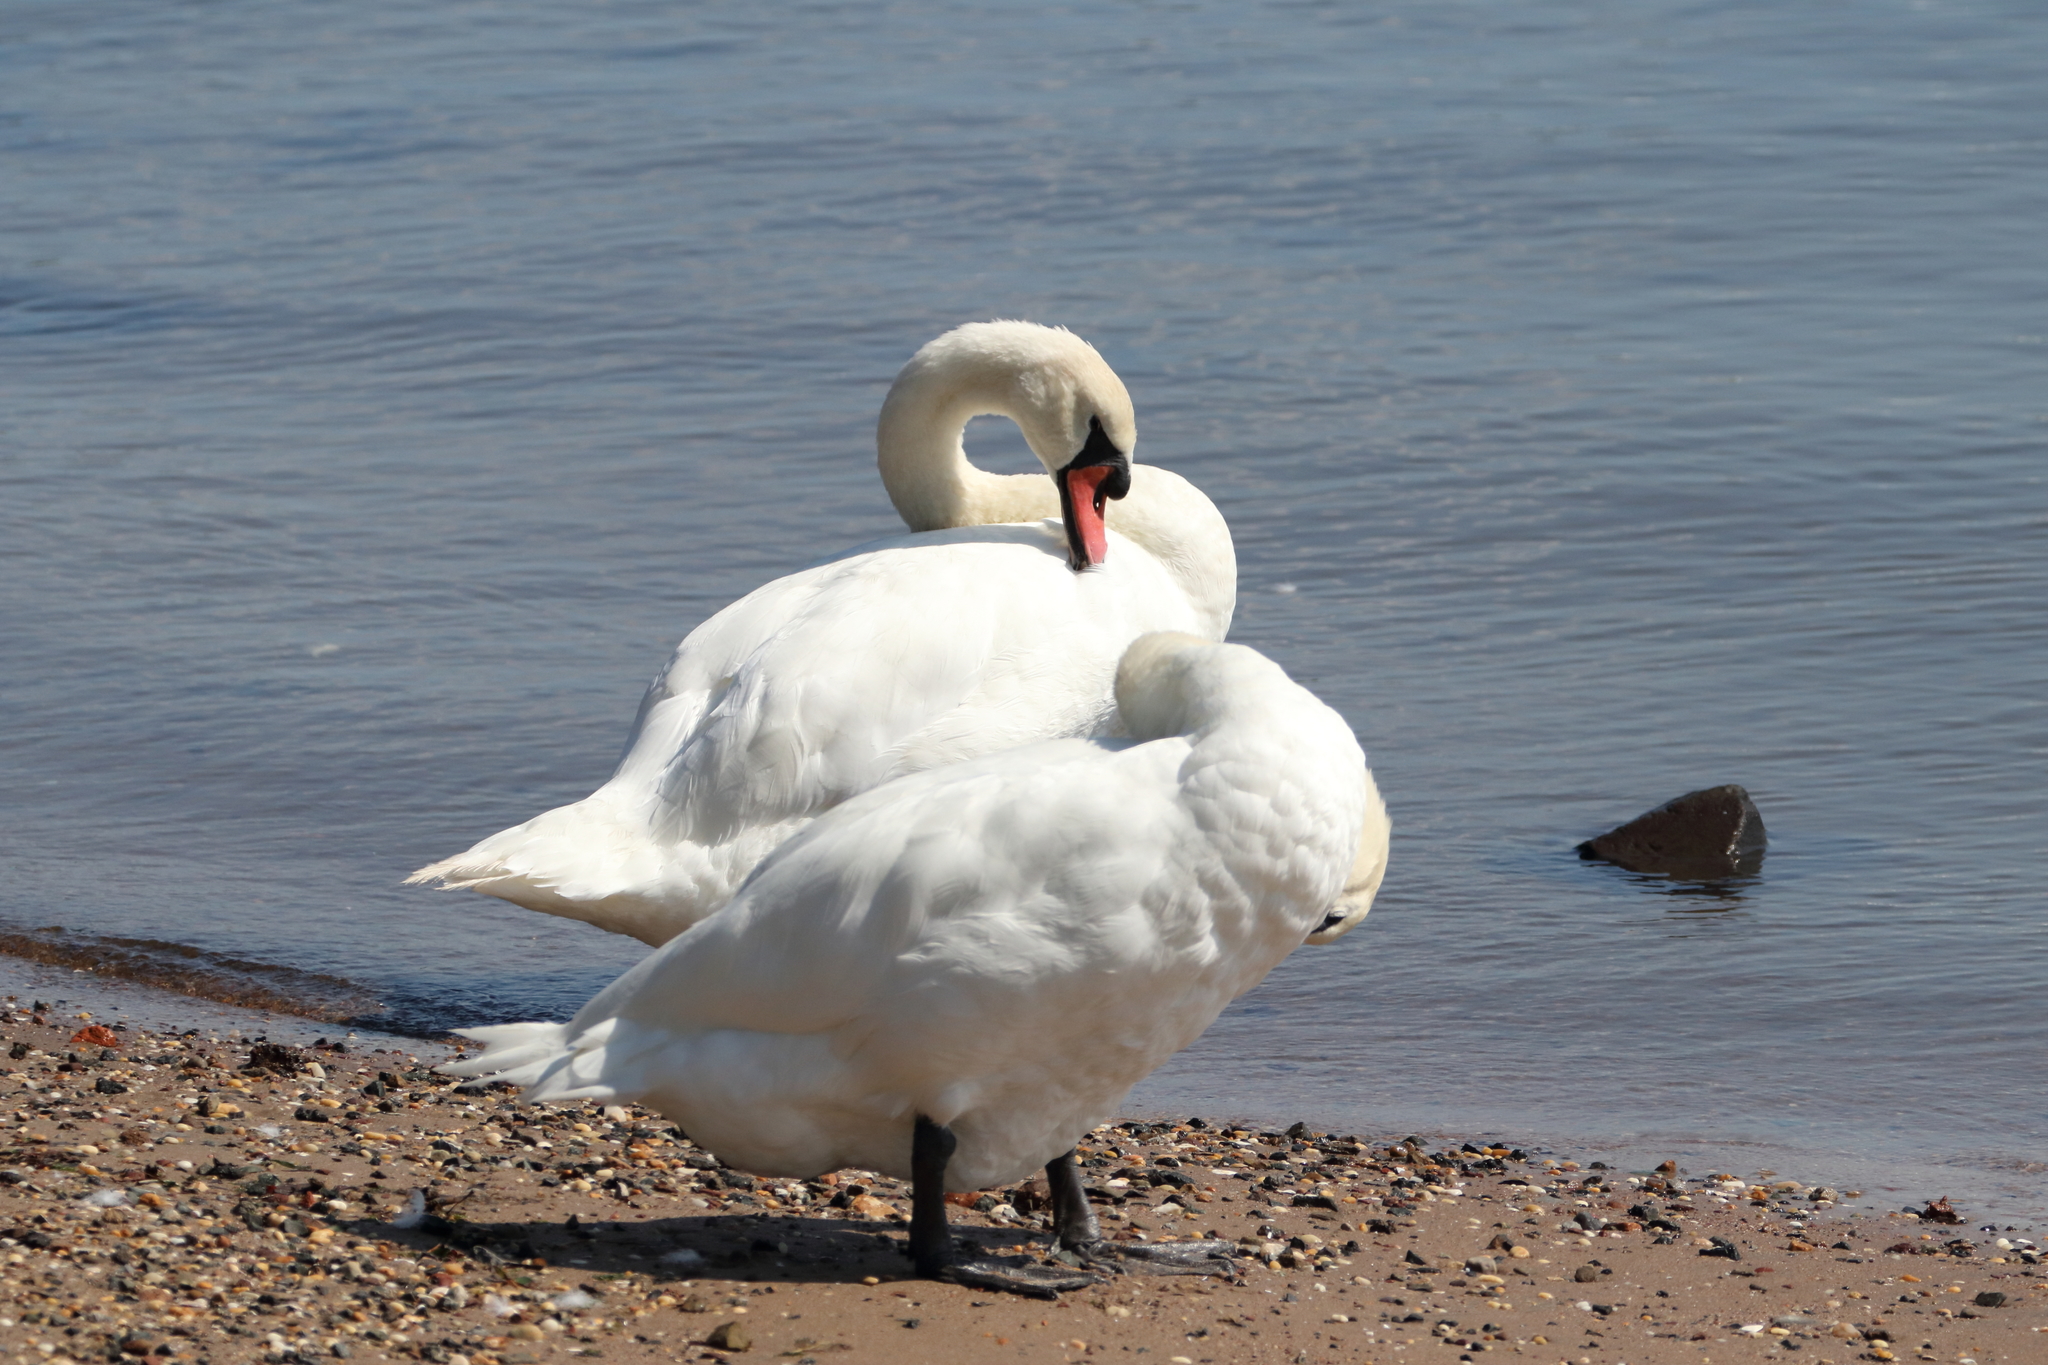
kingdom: Animalia
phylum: Chordata
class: Aves
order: Anseriformes
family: Anatidae
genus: Cygnus
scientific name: Cygnus olor
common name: Mute swan
